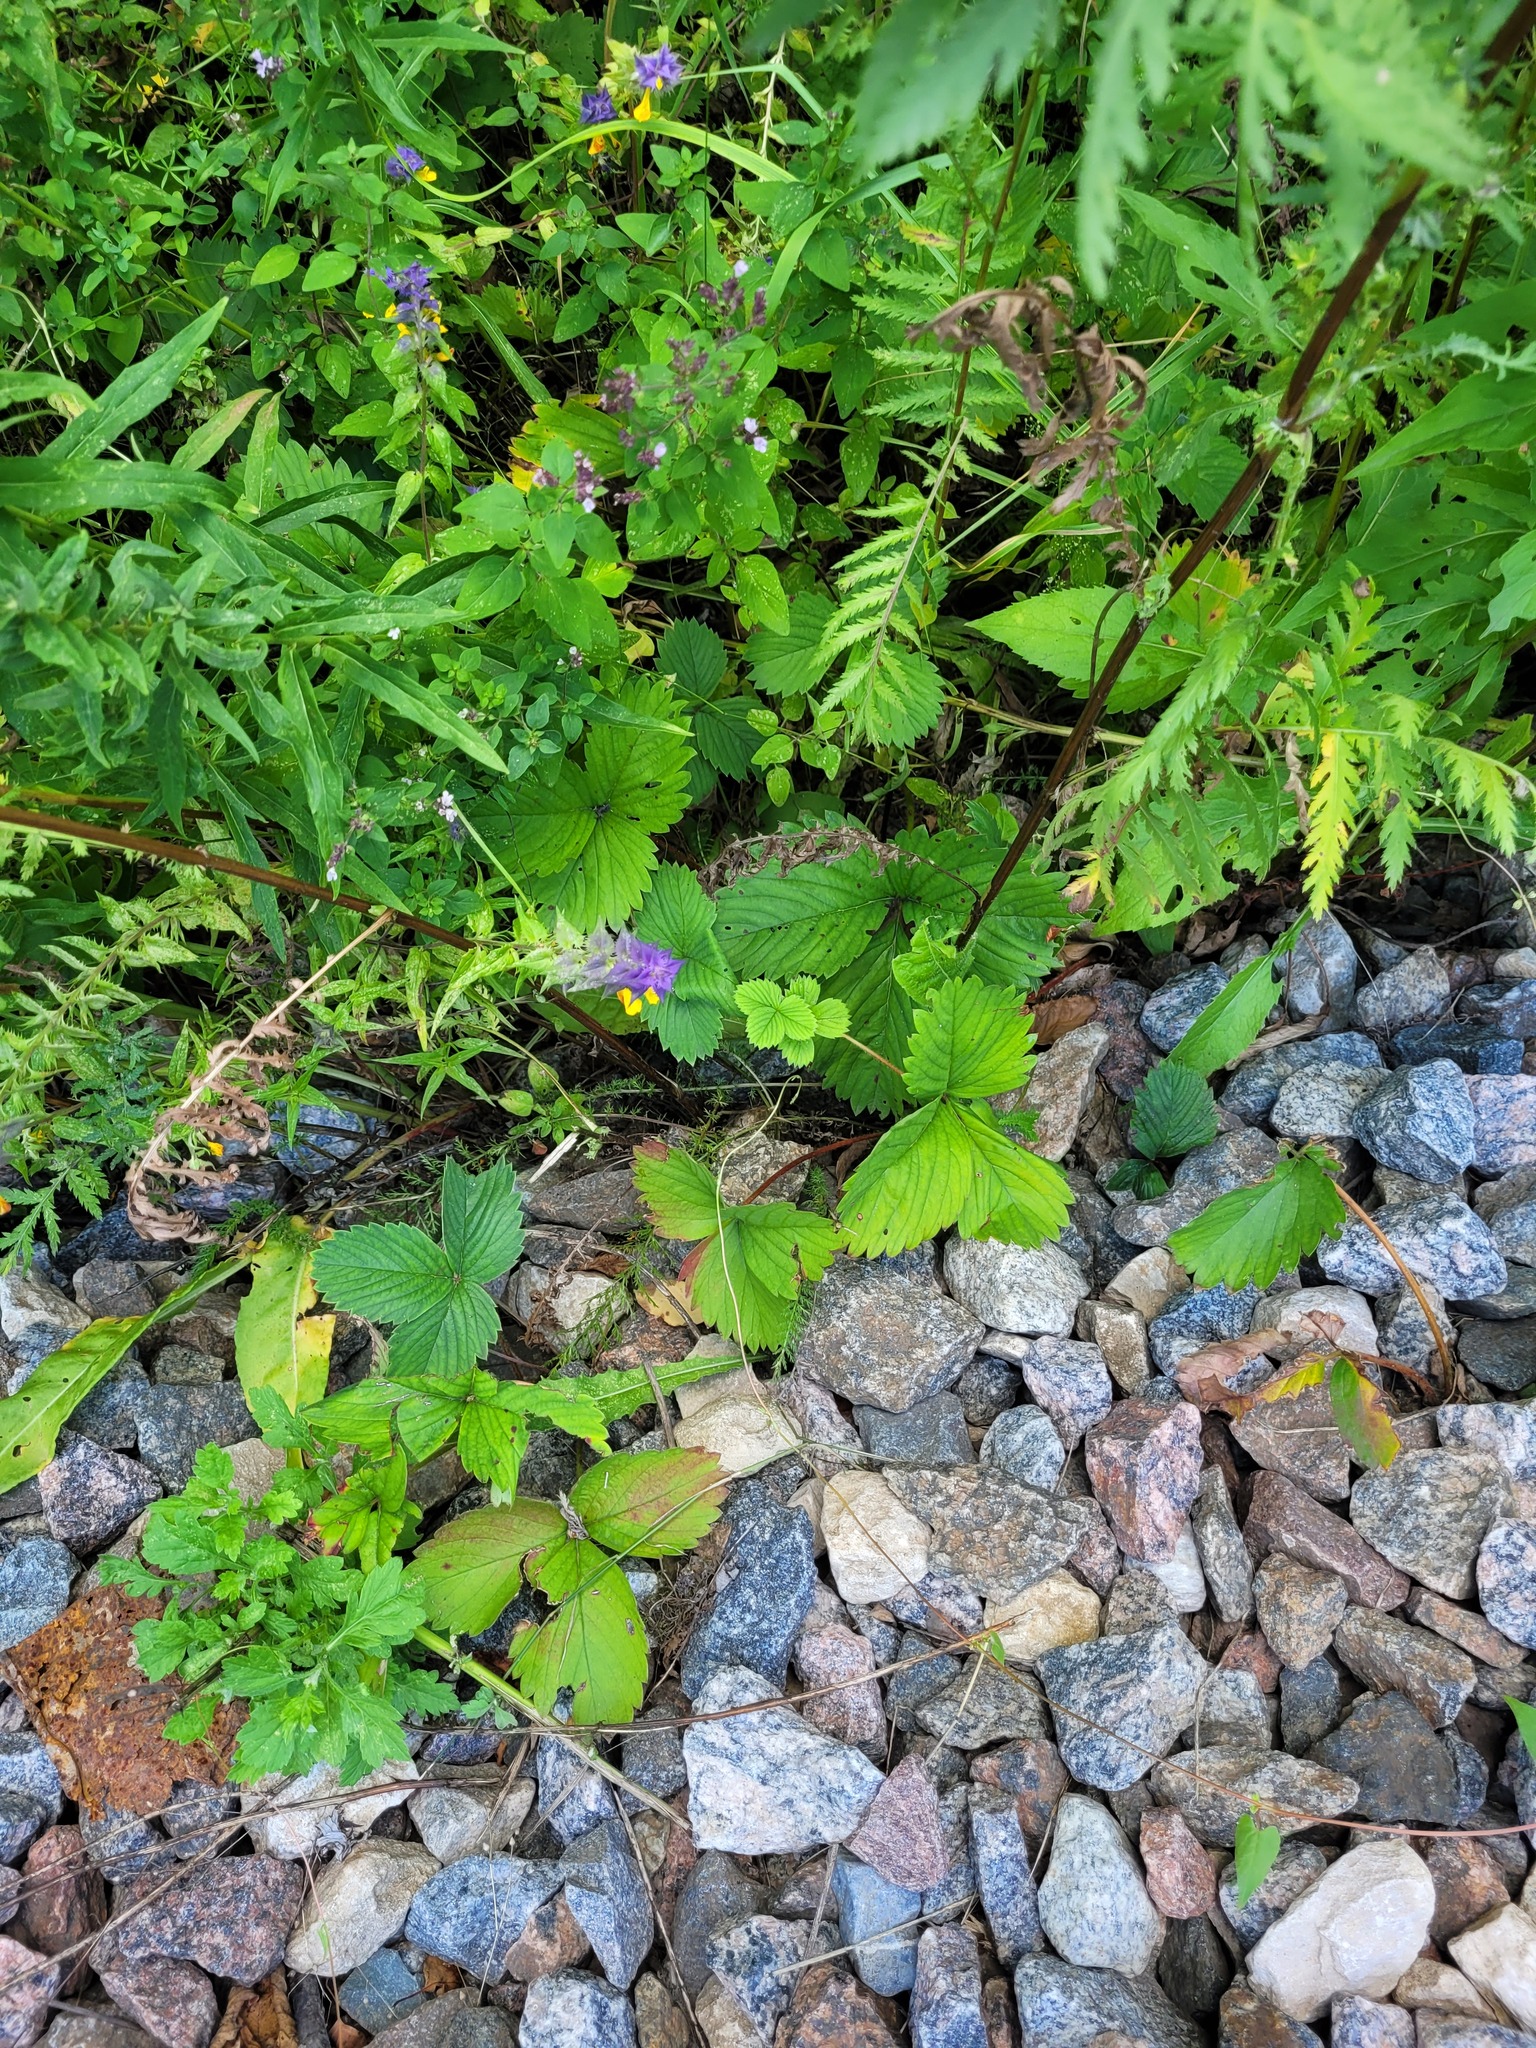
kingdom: Plantae
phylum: Tracheophyta
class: Magnoliopsida
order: Rosales
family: Rosaceae
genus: Fragaria
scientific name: Fragaria ananassa
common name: Garden strawberry
